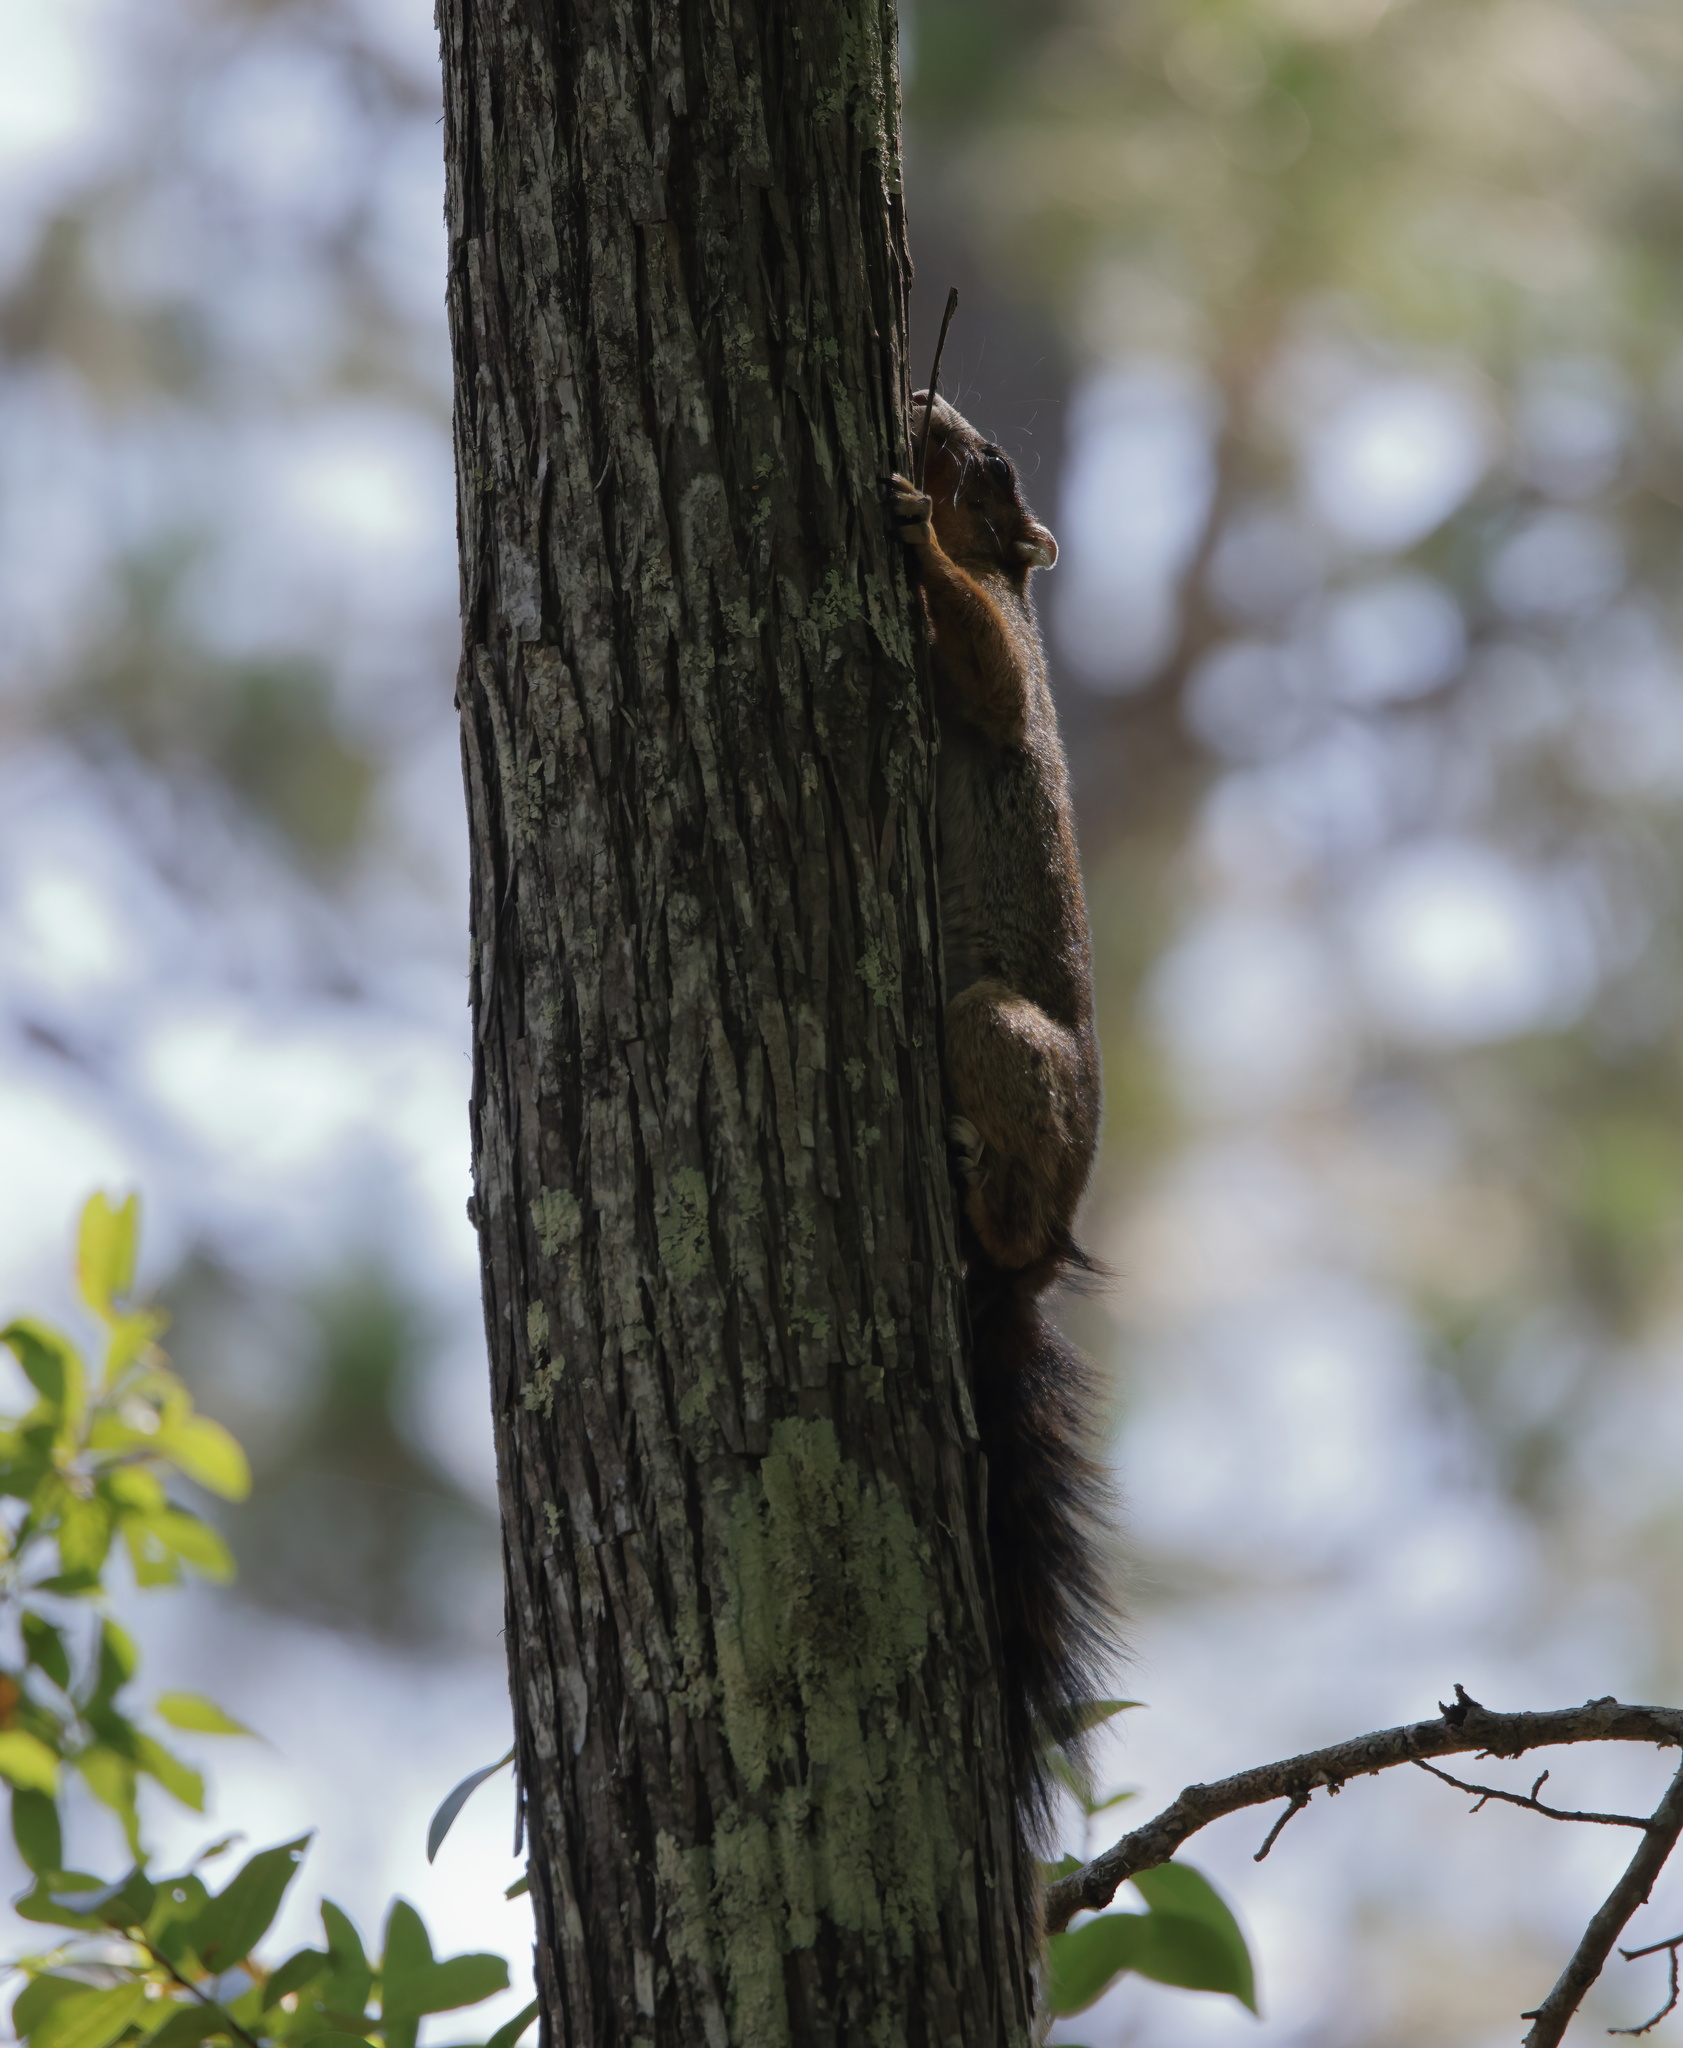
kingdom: Animalia
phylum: Chordata
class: Mammalia
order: Rodentia
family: Sciuridae
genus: Sciurus
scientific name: Sciurus niger
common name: Fox squirrel
